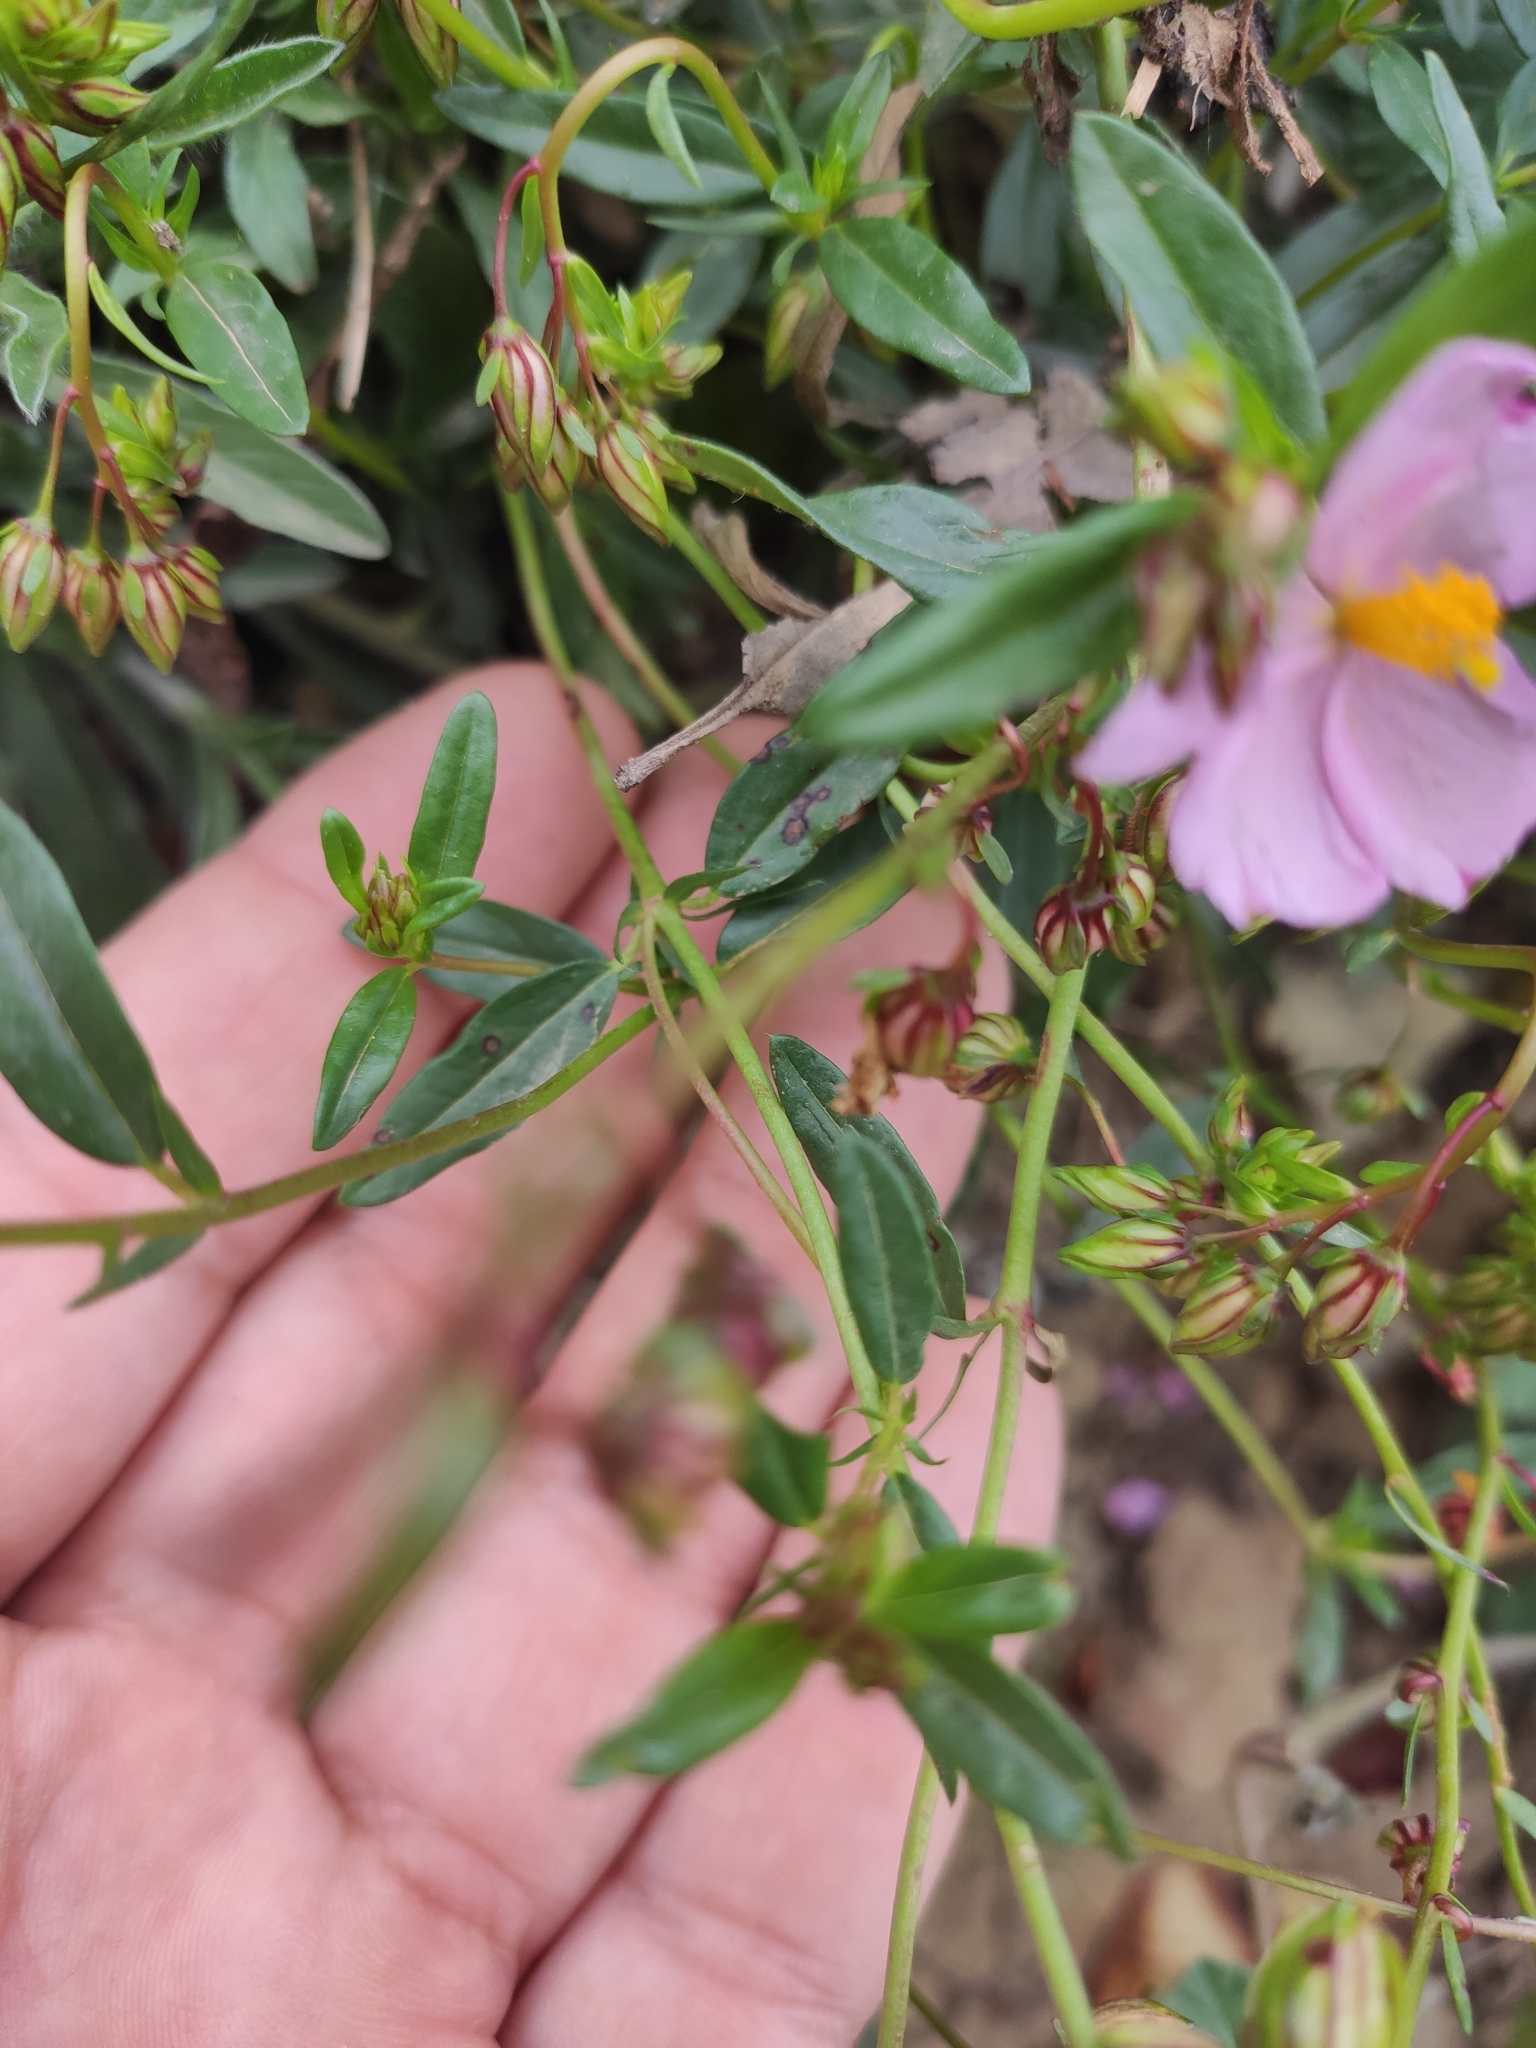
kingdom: Plantae
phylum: Tracheophyta
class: Magnoliopsida
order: Malvales
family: Cistaceae
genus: Helianthemum
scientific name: Helianthemum nummularium
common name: Common rock-rose
